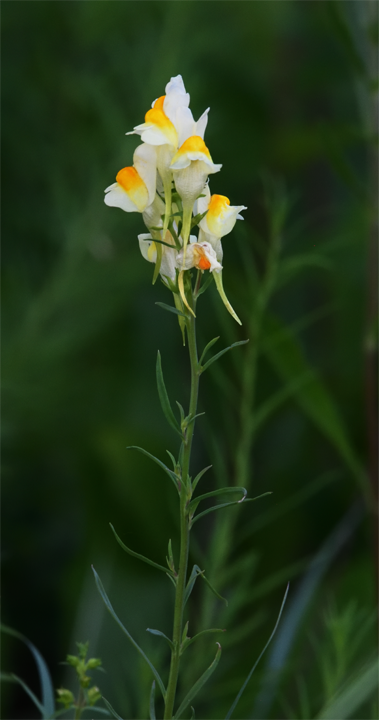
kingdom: Plantae
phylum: Tracheophyta
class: Magnoliopsida
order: Lamiales
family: Plantaginaceae
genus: Linaria
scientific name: Linaria vulgaris
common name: Butter and eggs
